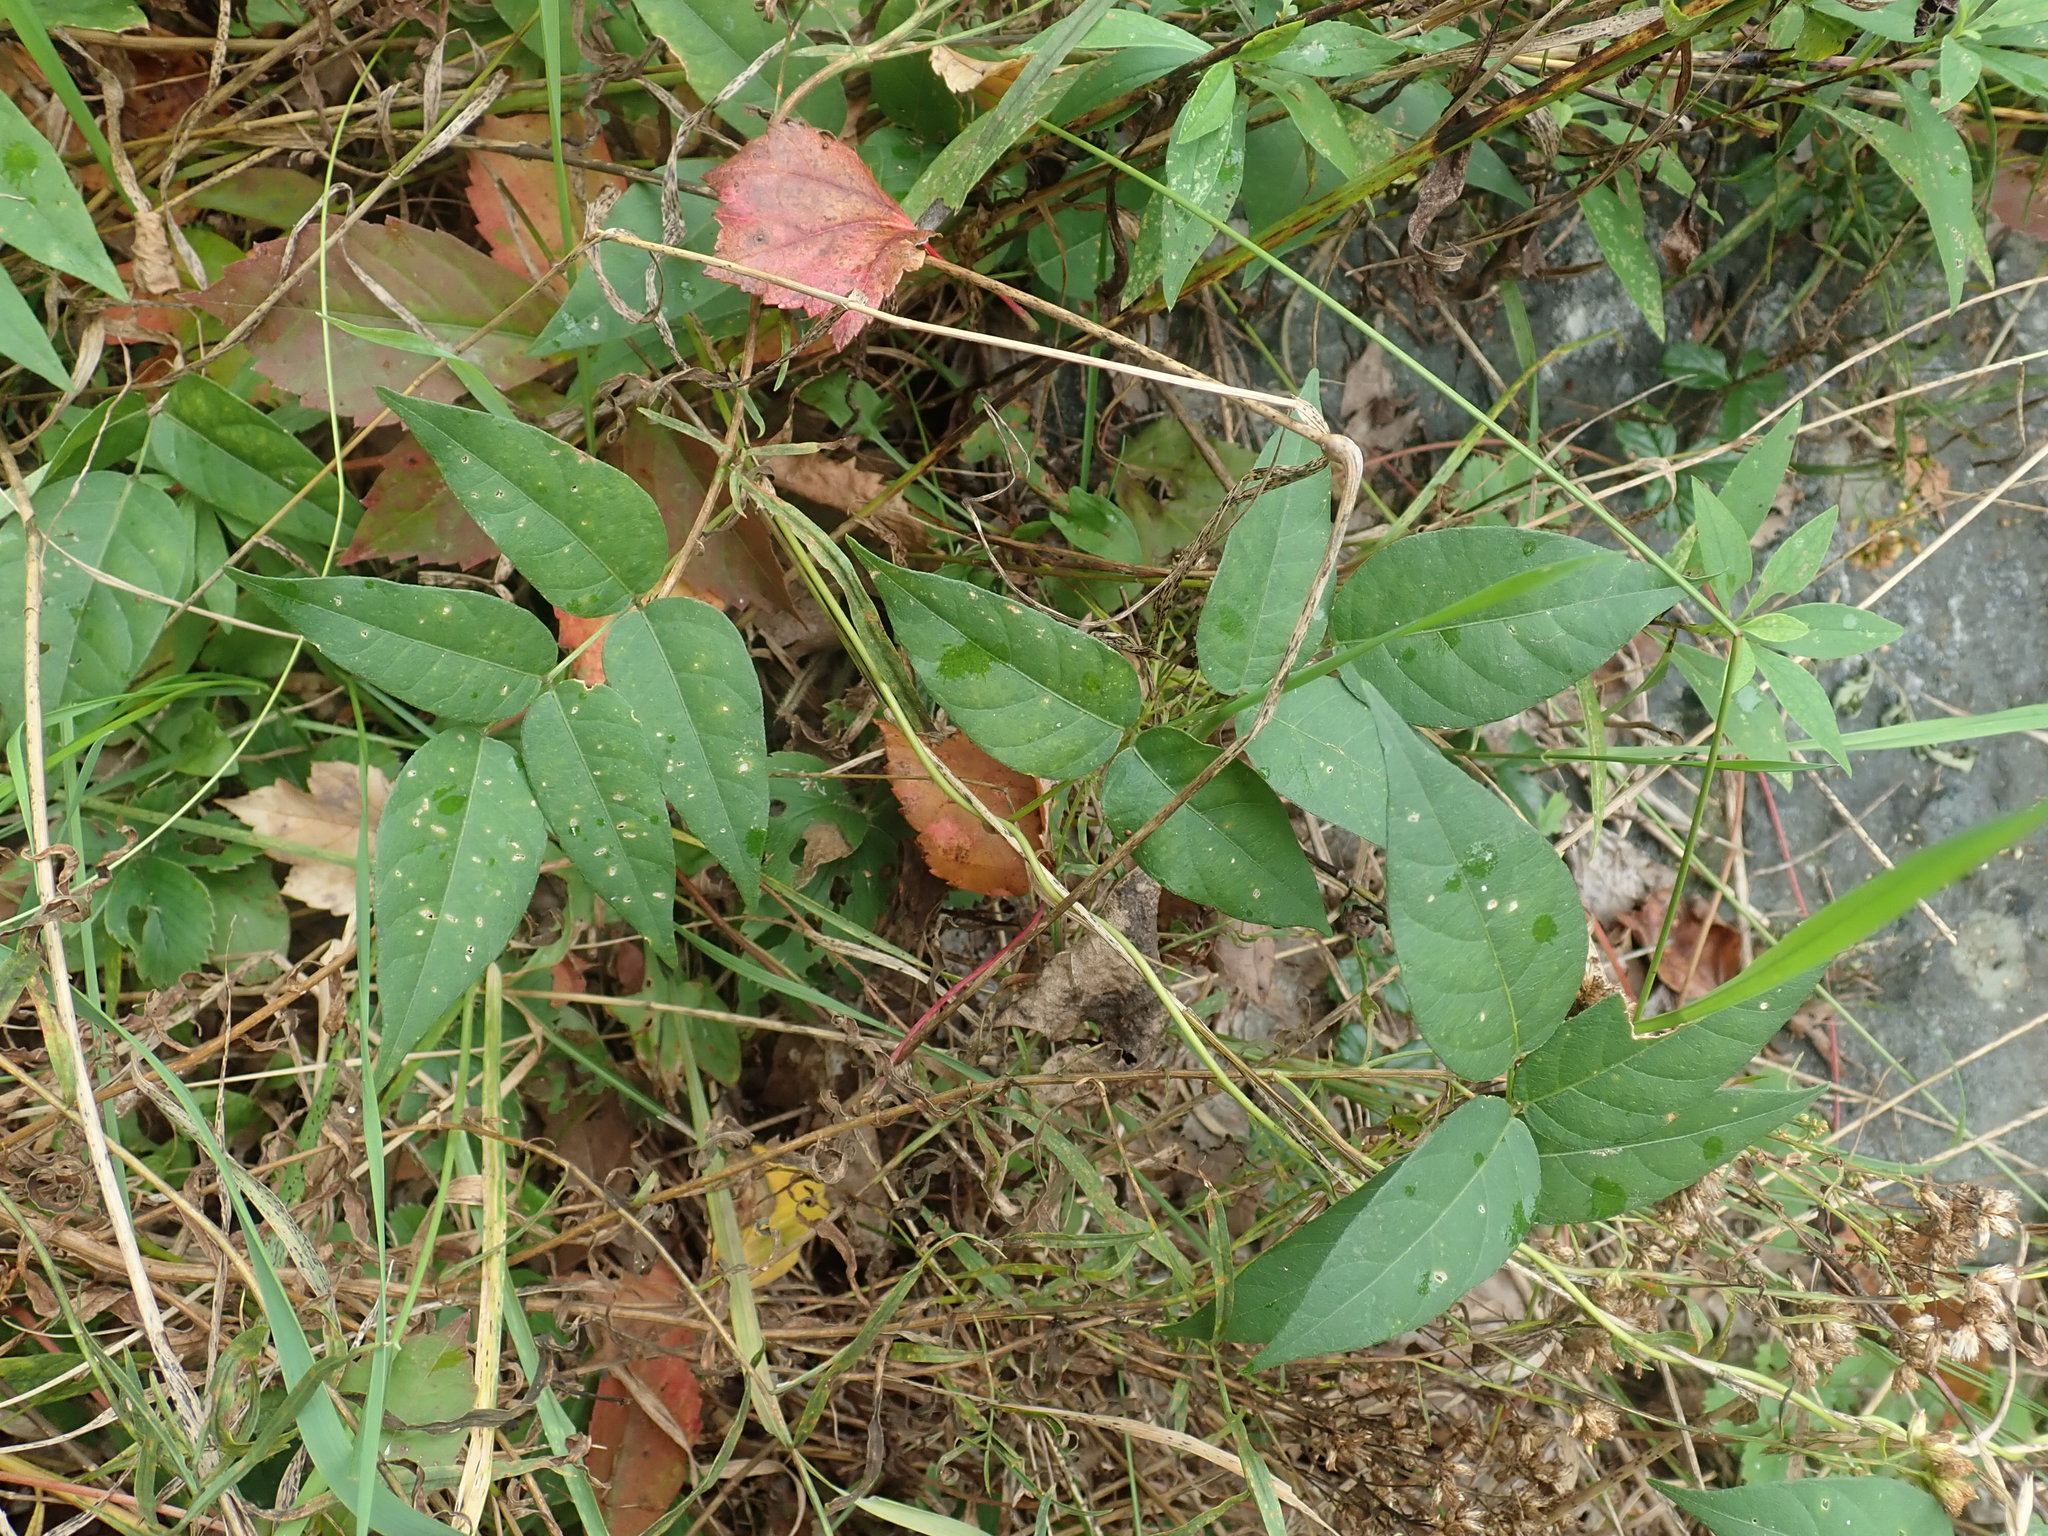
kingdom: Plantae
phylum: Tracheophyta
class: Magnoliopsida
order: Fabales
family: Fabaceae
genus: Apios
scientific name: Apios americana
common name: American potato-bean
